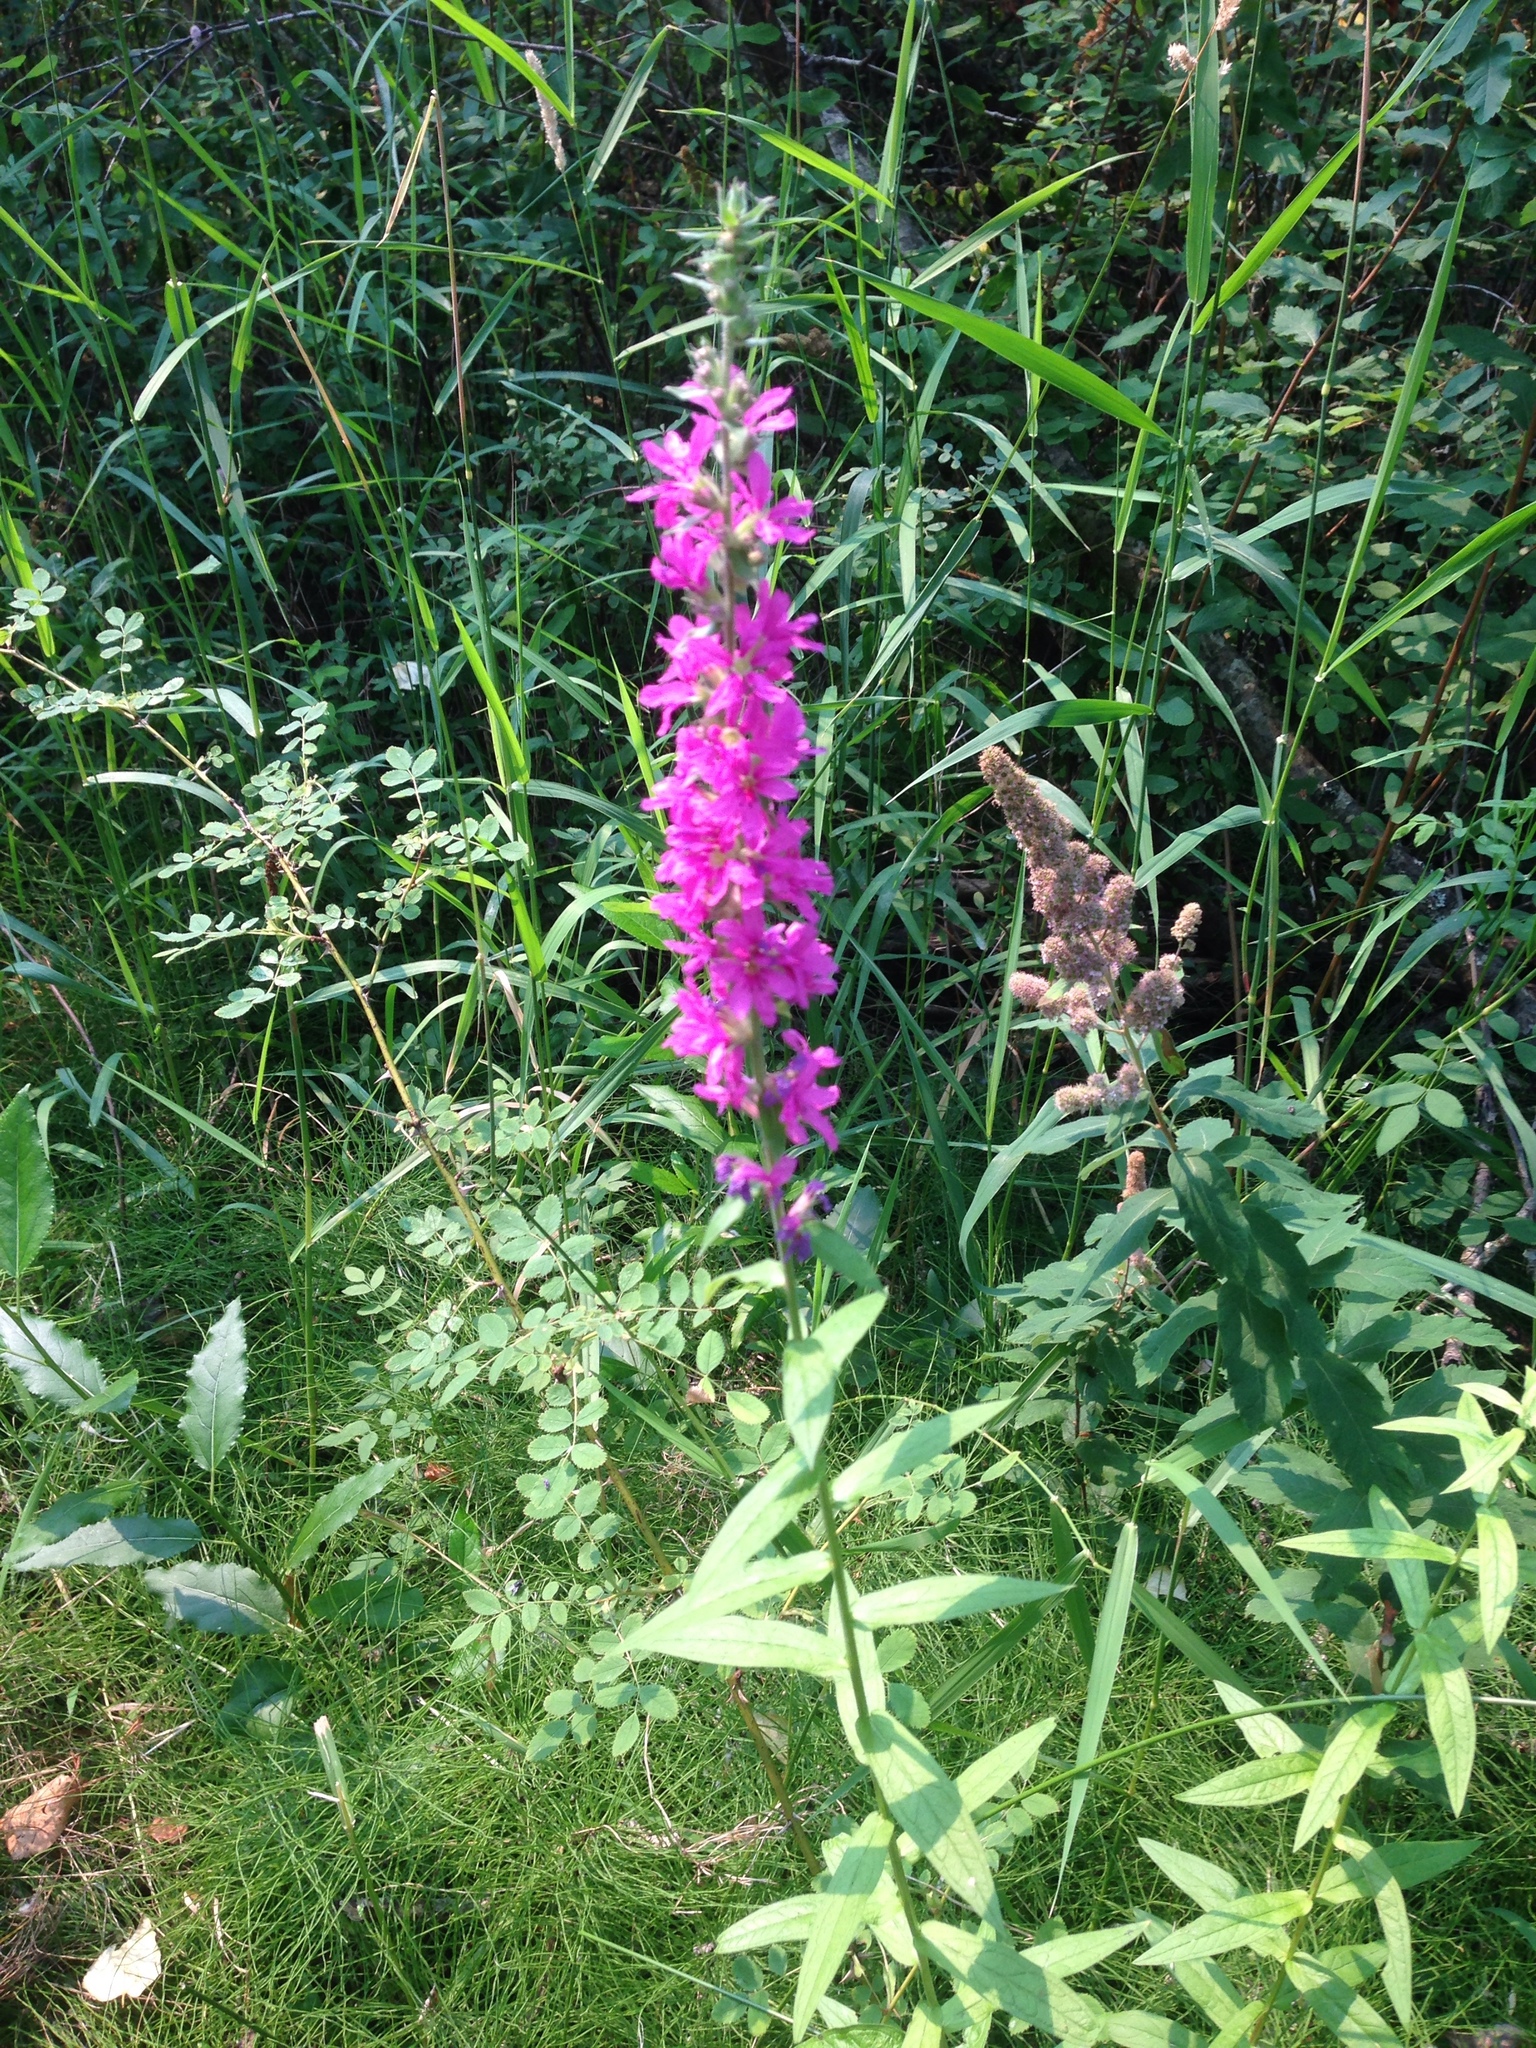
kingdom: Plantae
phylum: Tracheophyta
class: Magnoliopsida
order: Myrtales
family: Lythraceae
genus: Lythrum
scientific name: Lythrum salicaria
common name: Purple loosestrife
